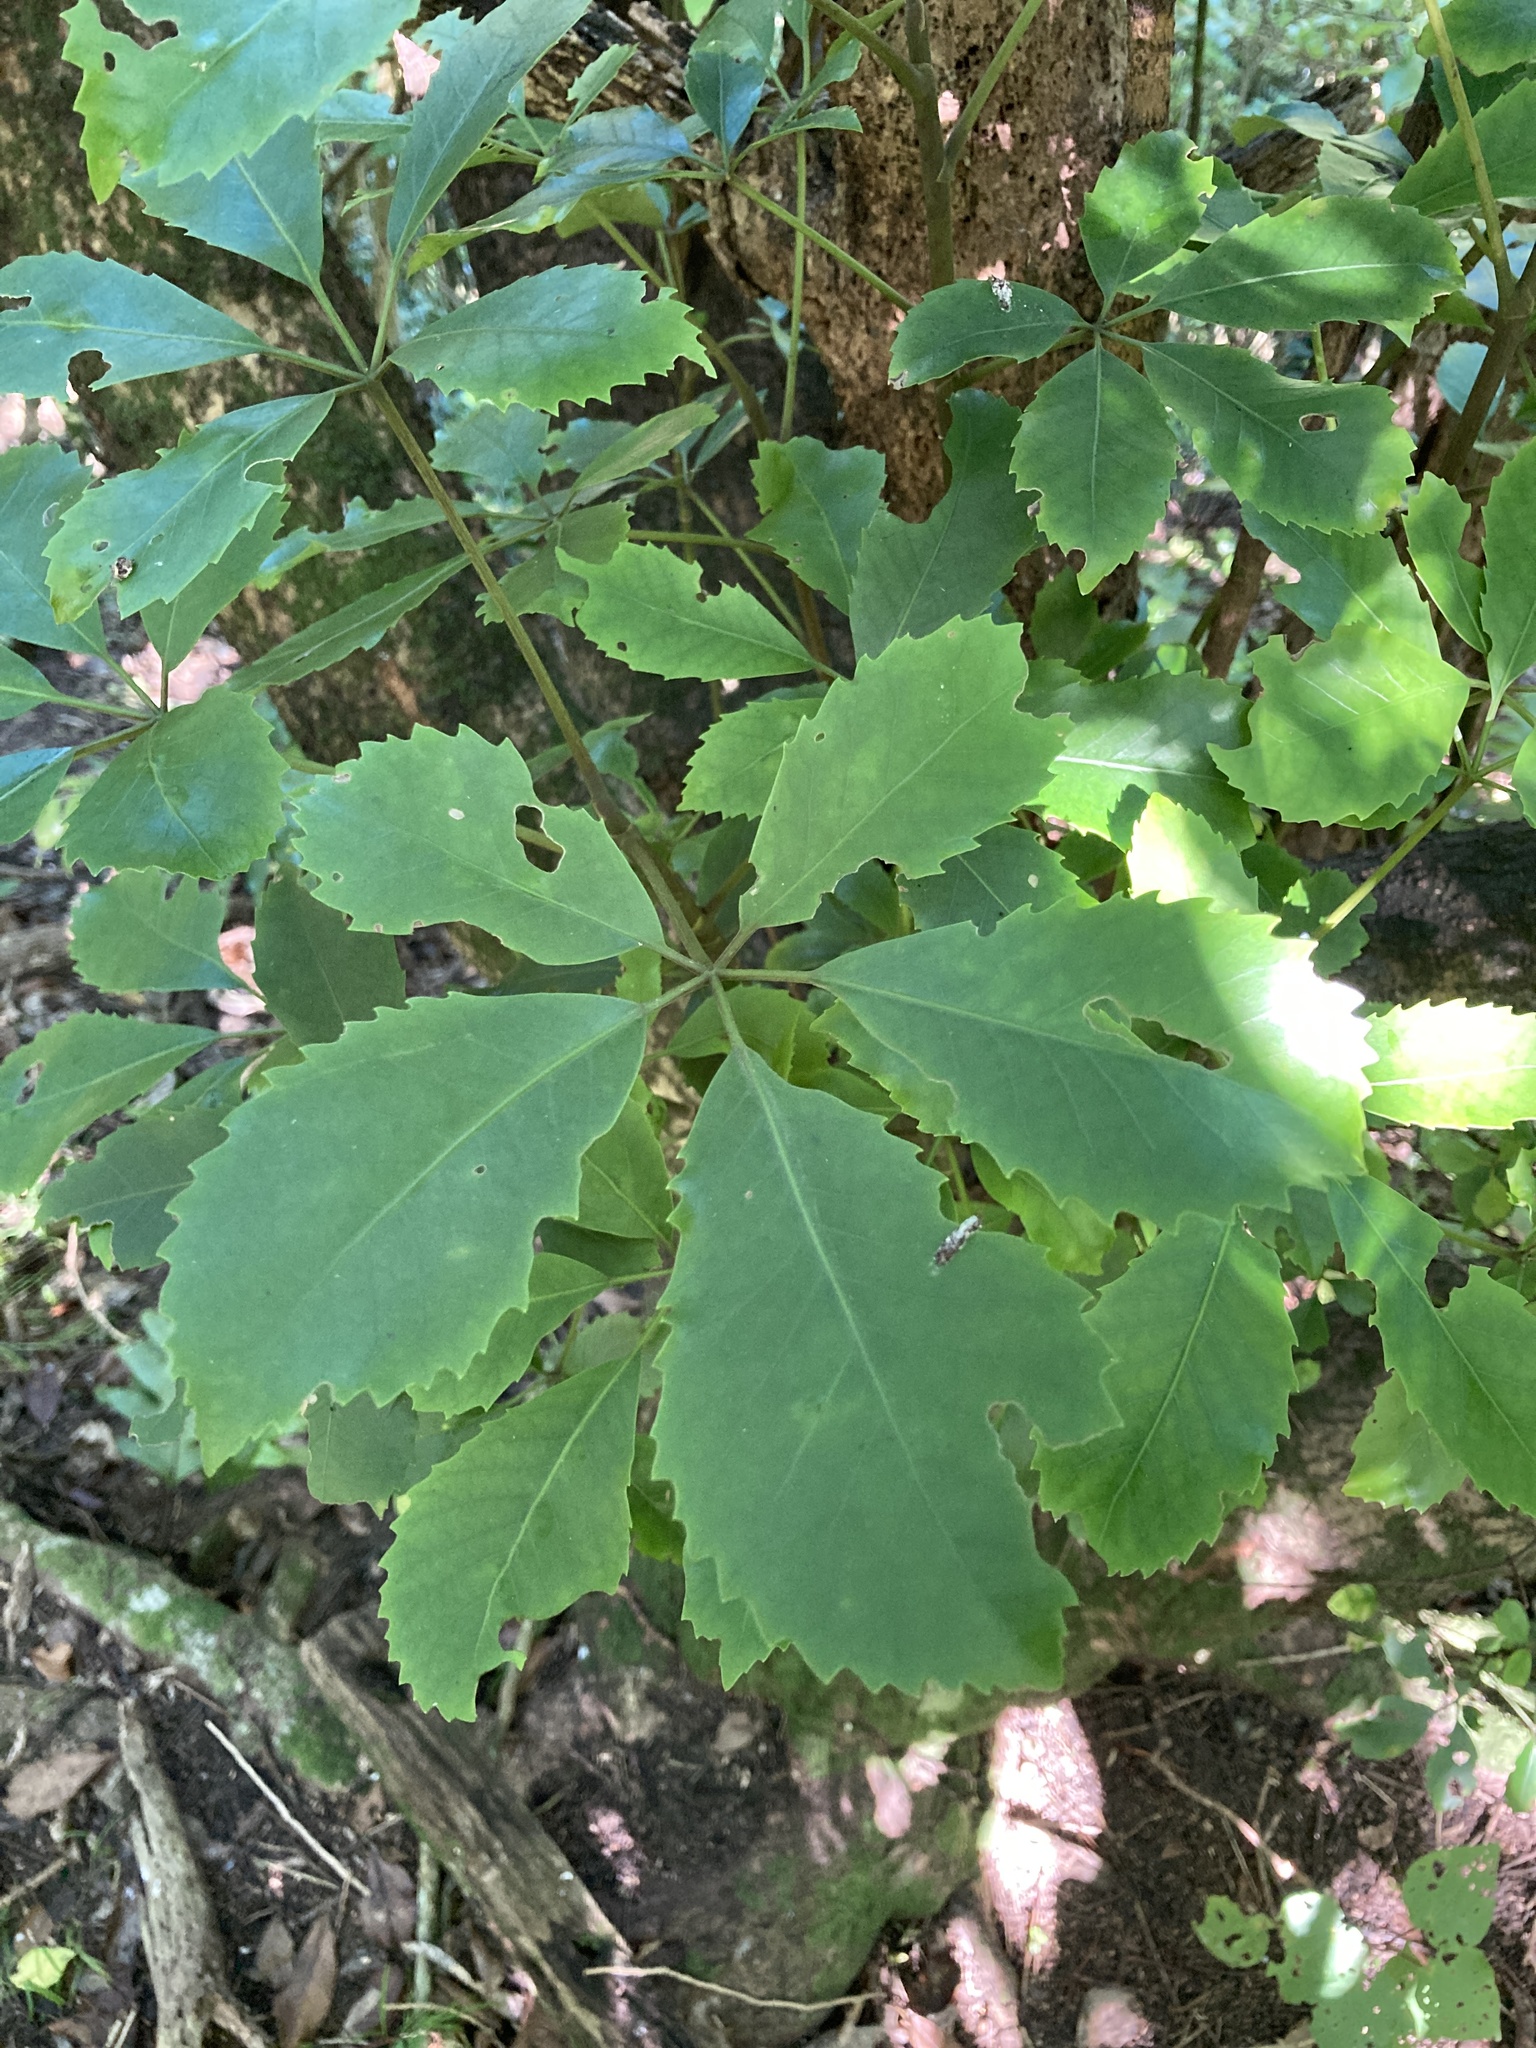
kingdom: Plantae
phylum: Tracheophyta
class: Magnoliopsida
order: Apiales
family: Araliaceae
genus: Neopanax
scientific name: Neopanax arboreus
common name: Five-fingers
